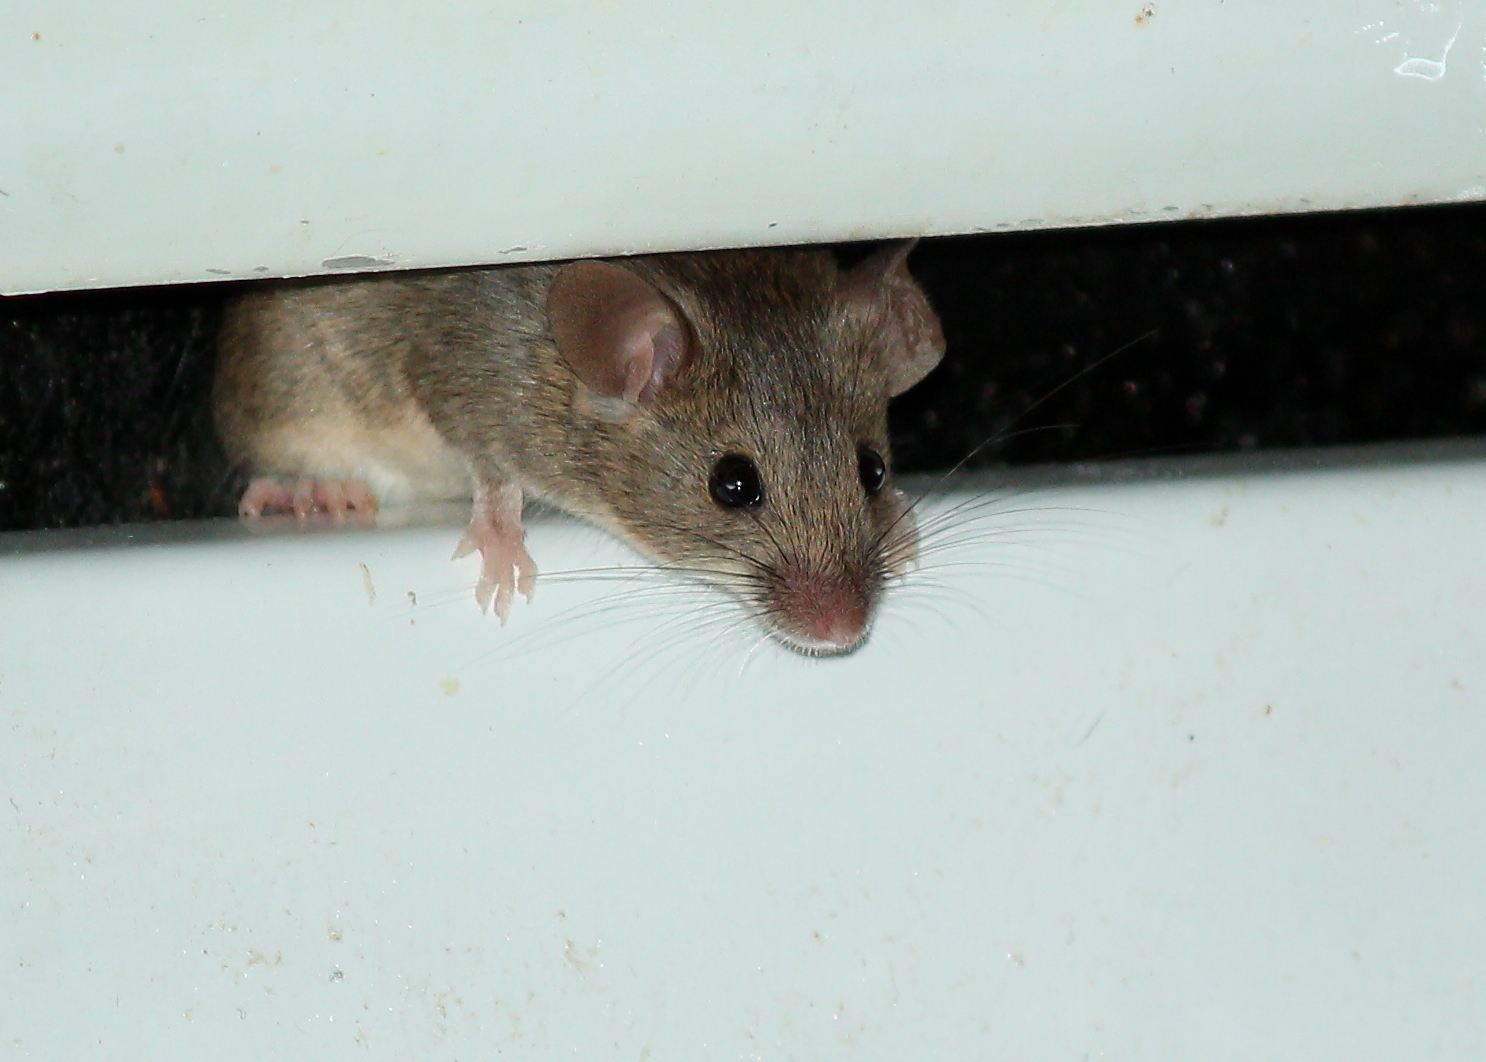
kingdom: Animalia
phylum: Chordata
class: Mammalia
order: Rodentia
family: Muridae
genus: Mus
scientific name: Mus musculus
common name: House mouse
